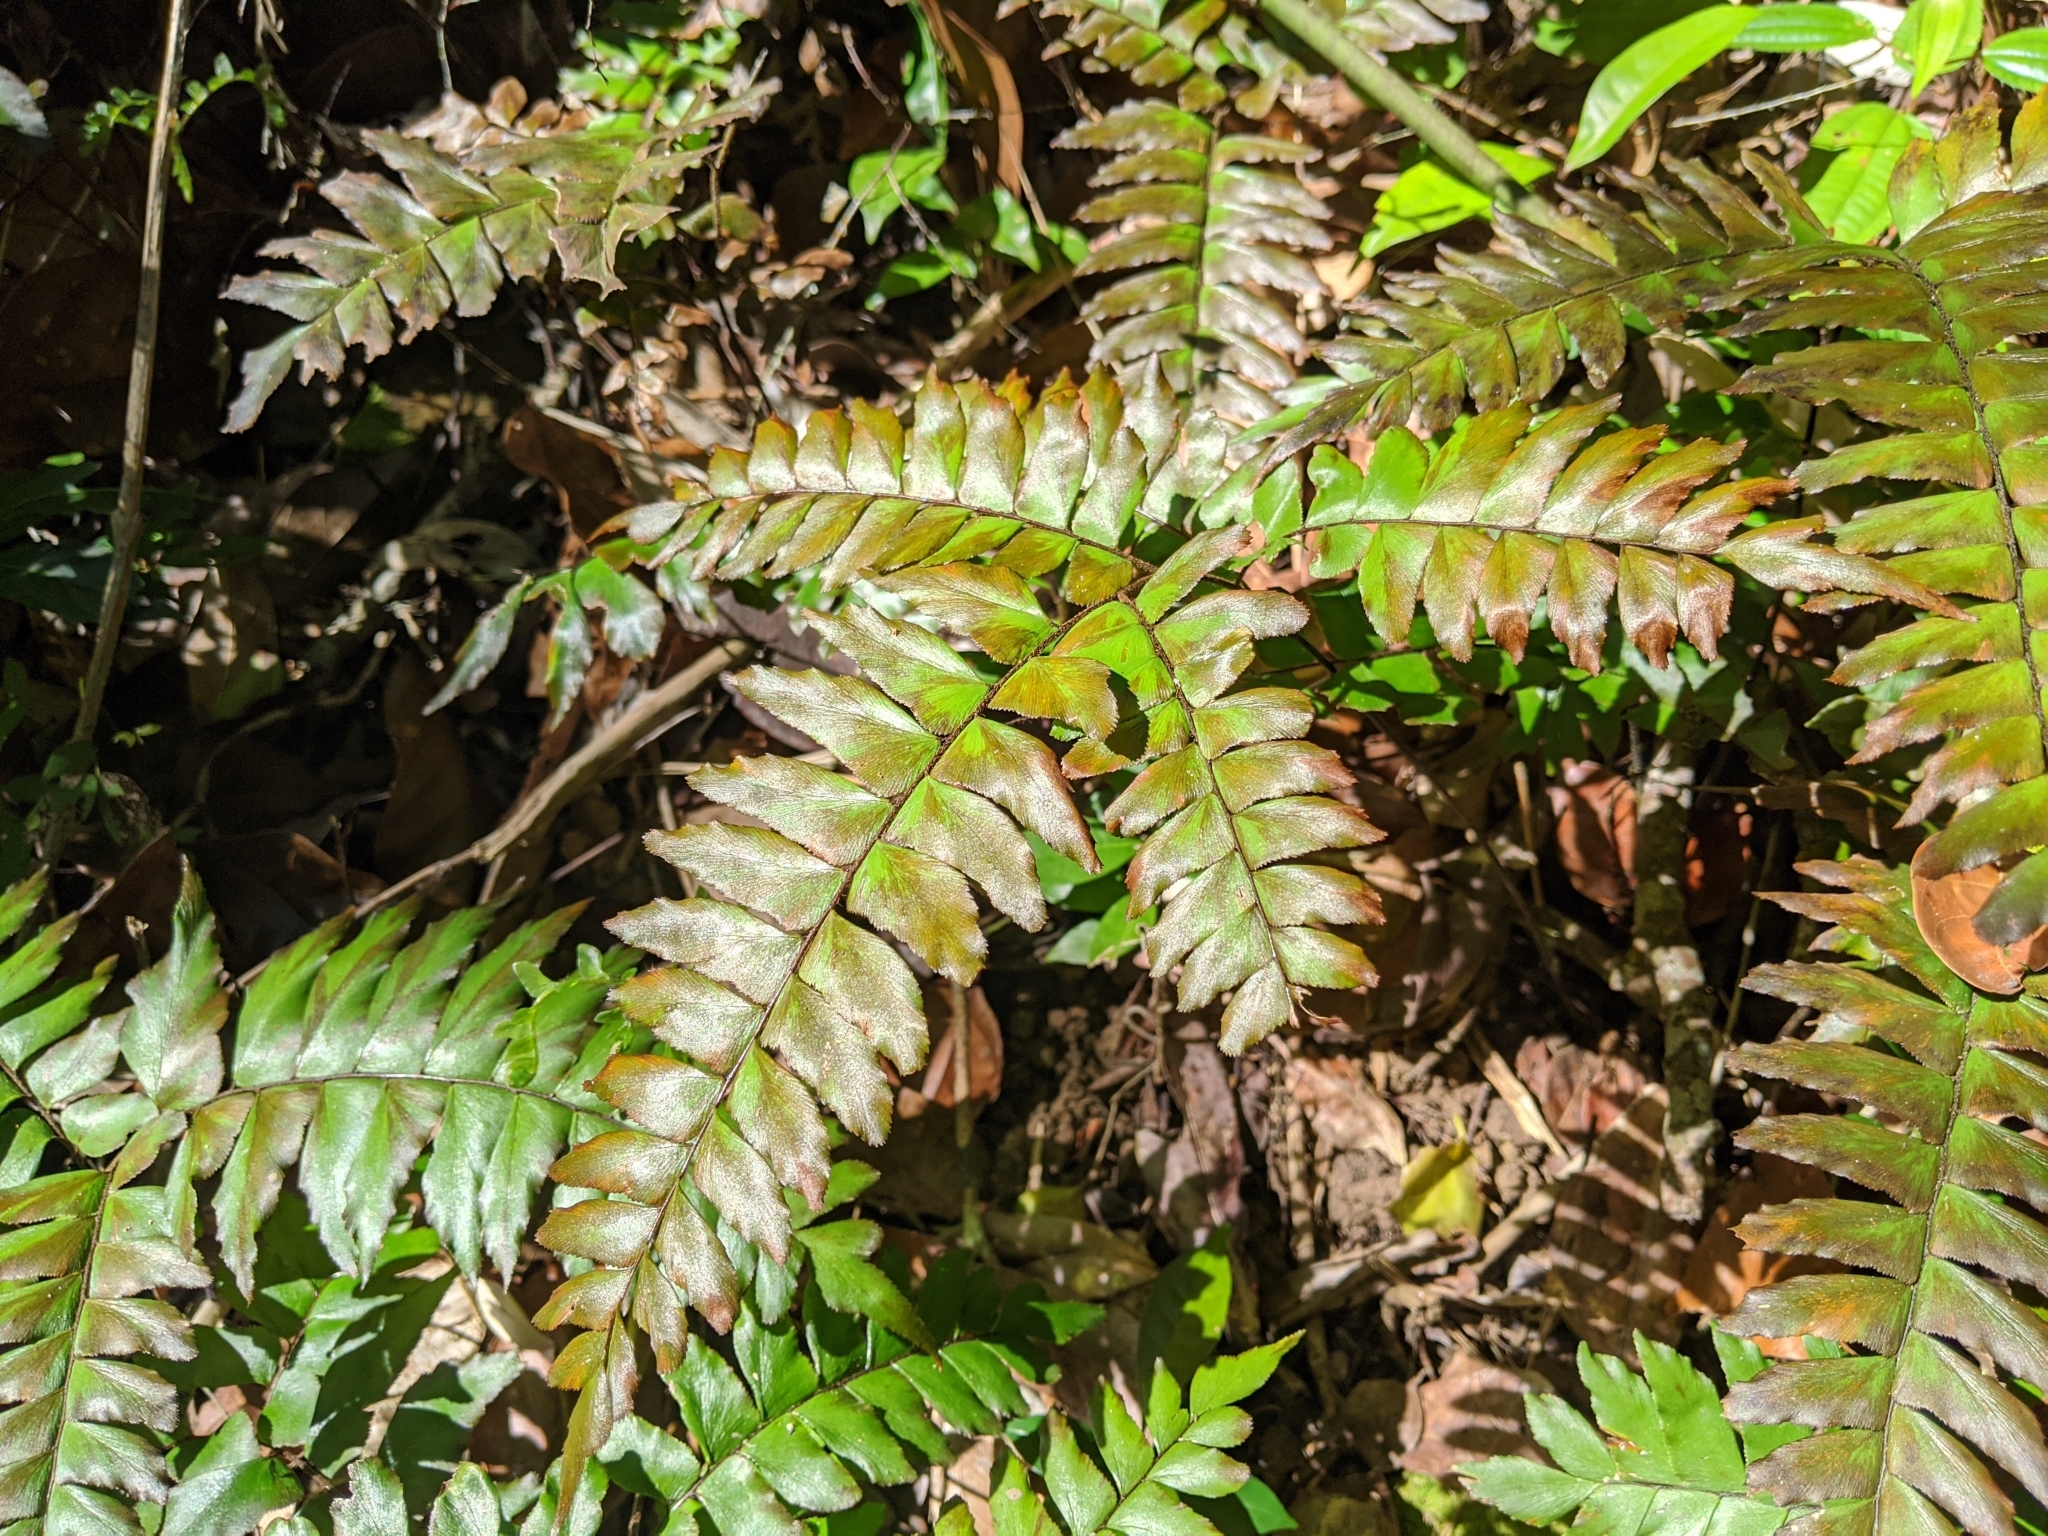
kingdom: Plantae
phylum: Tracheophyta
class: Polypodiopsida
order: Polypodiales
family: Pteridaceae
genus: Adiantum
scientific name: Adiantum latifolium
